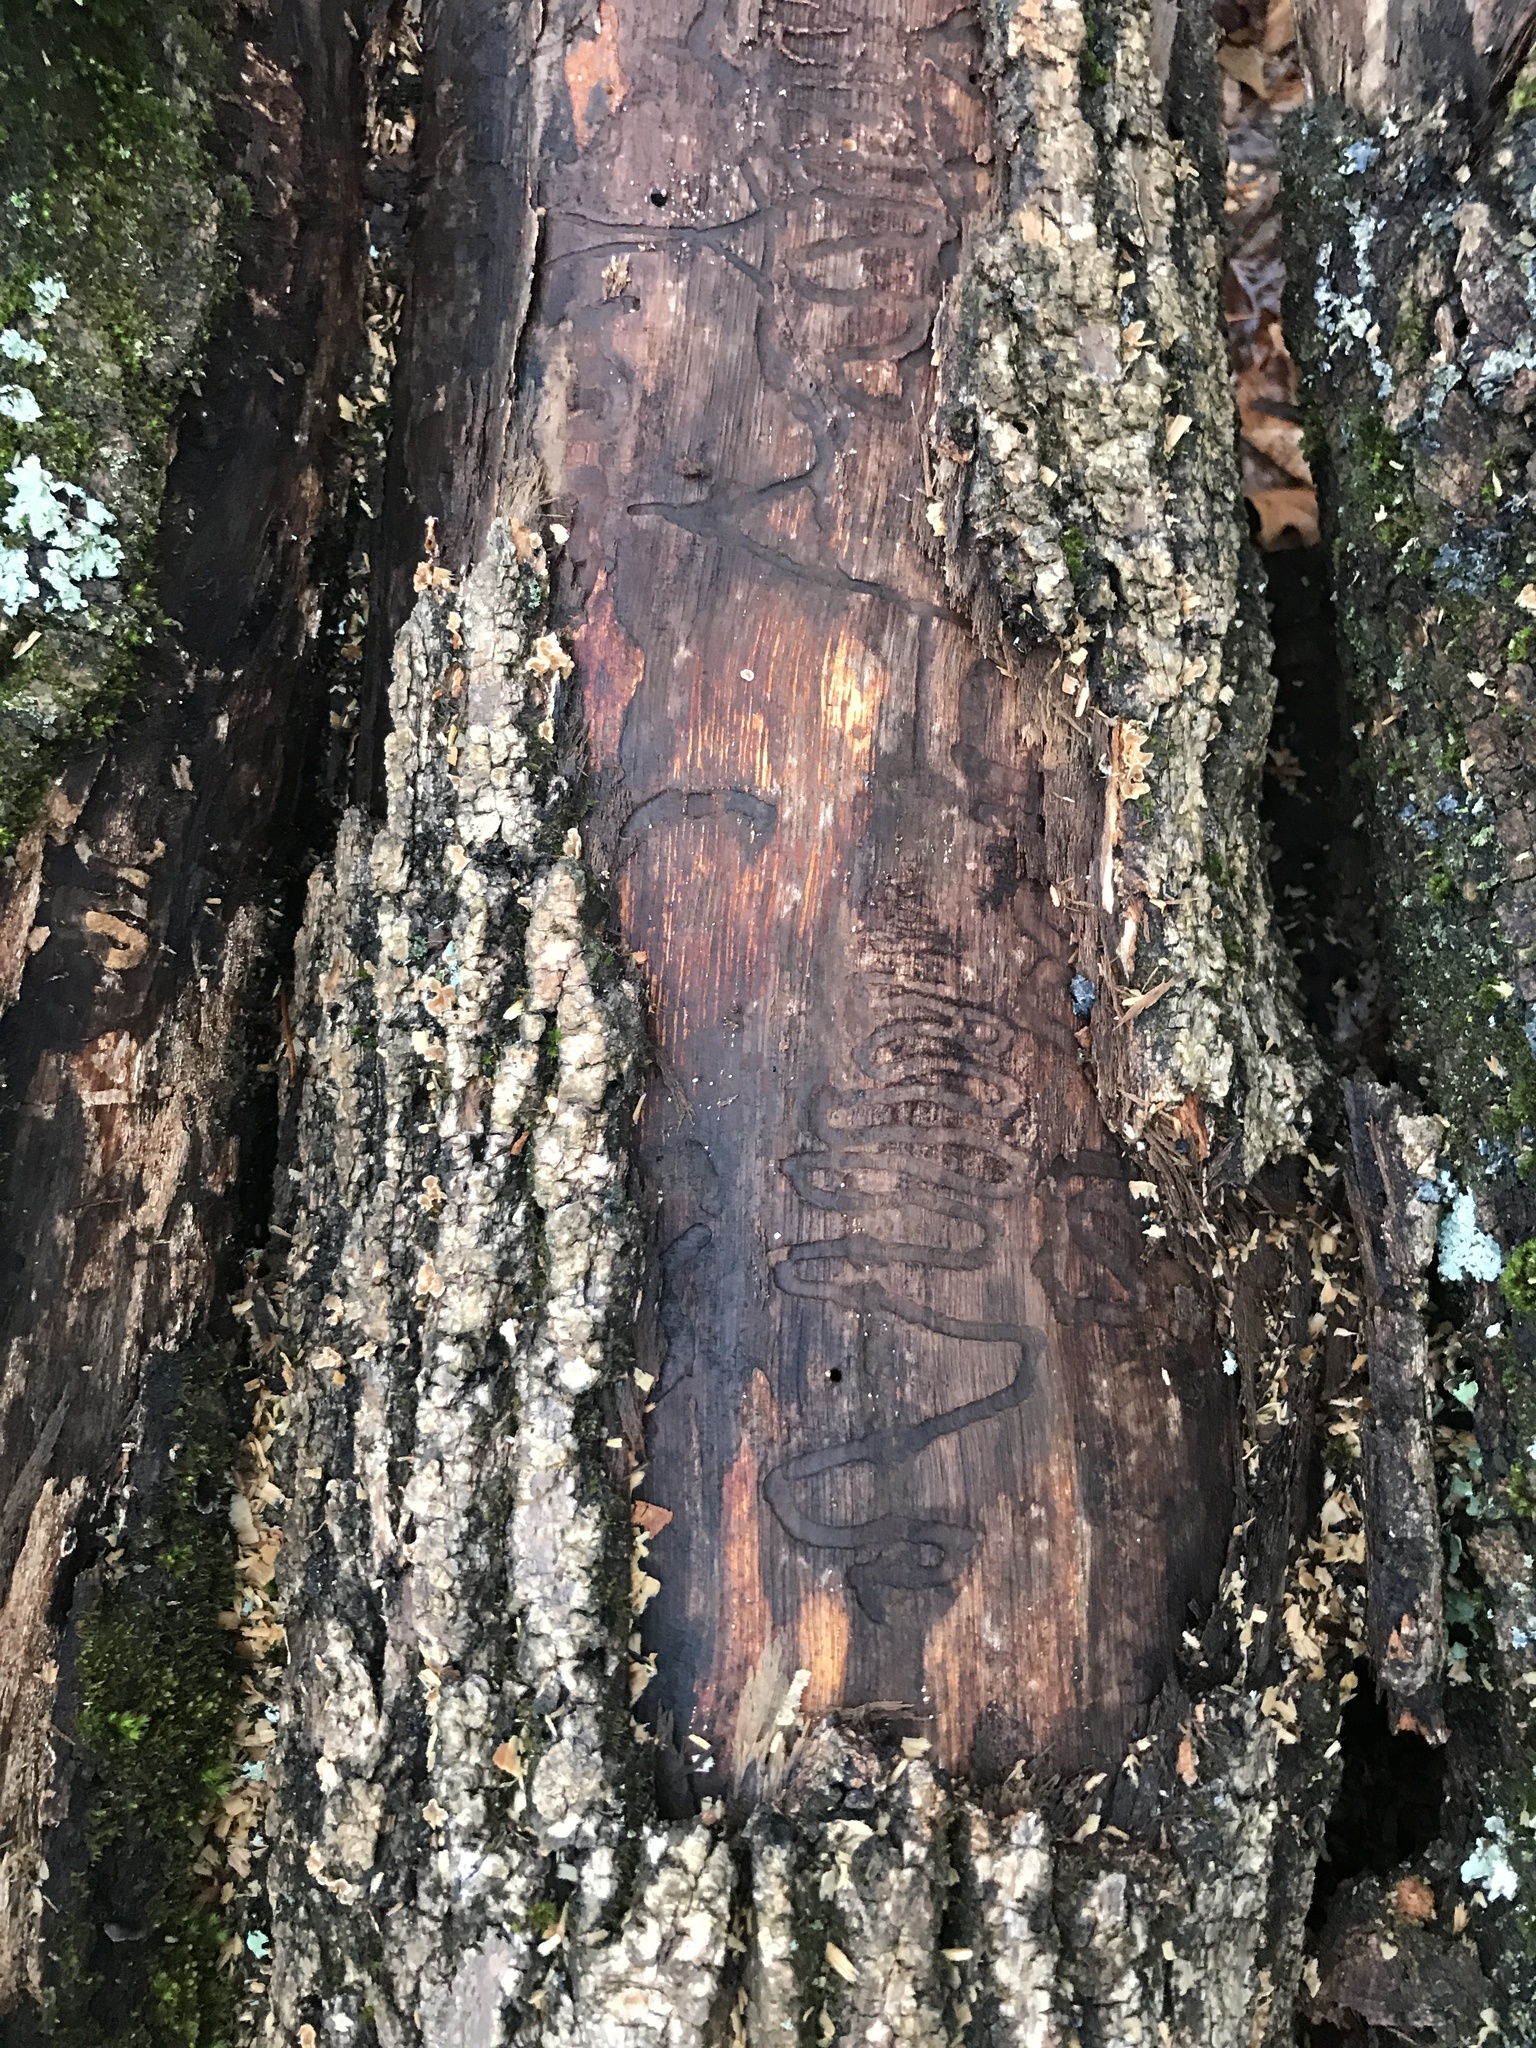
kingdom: Animalia
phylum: Arthropoda
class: Insecta
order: Coleoptera
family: Buprestidae
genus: Agrilus
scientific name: Agrilus planipennis
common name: Emerald ash borer
